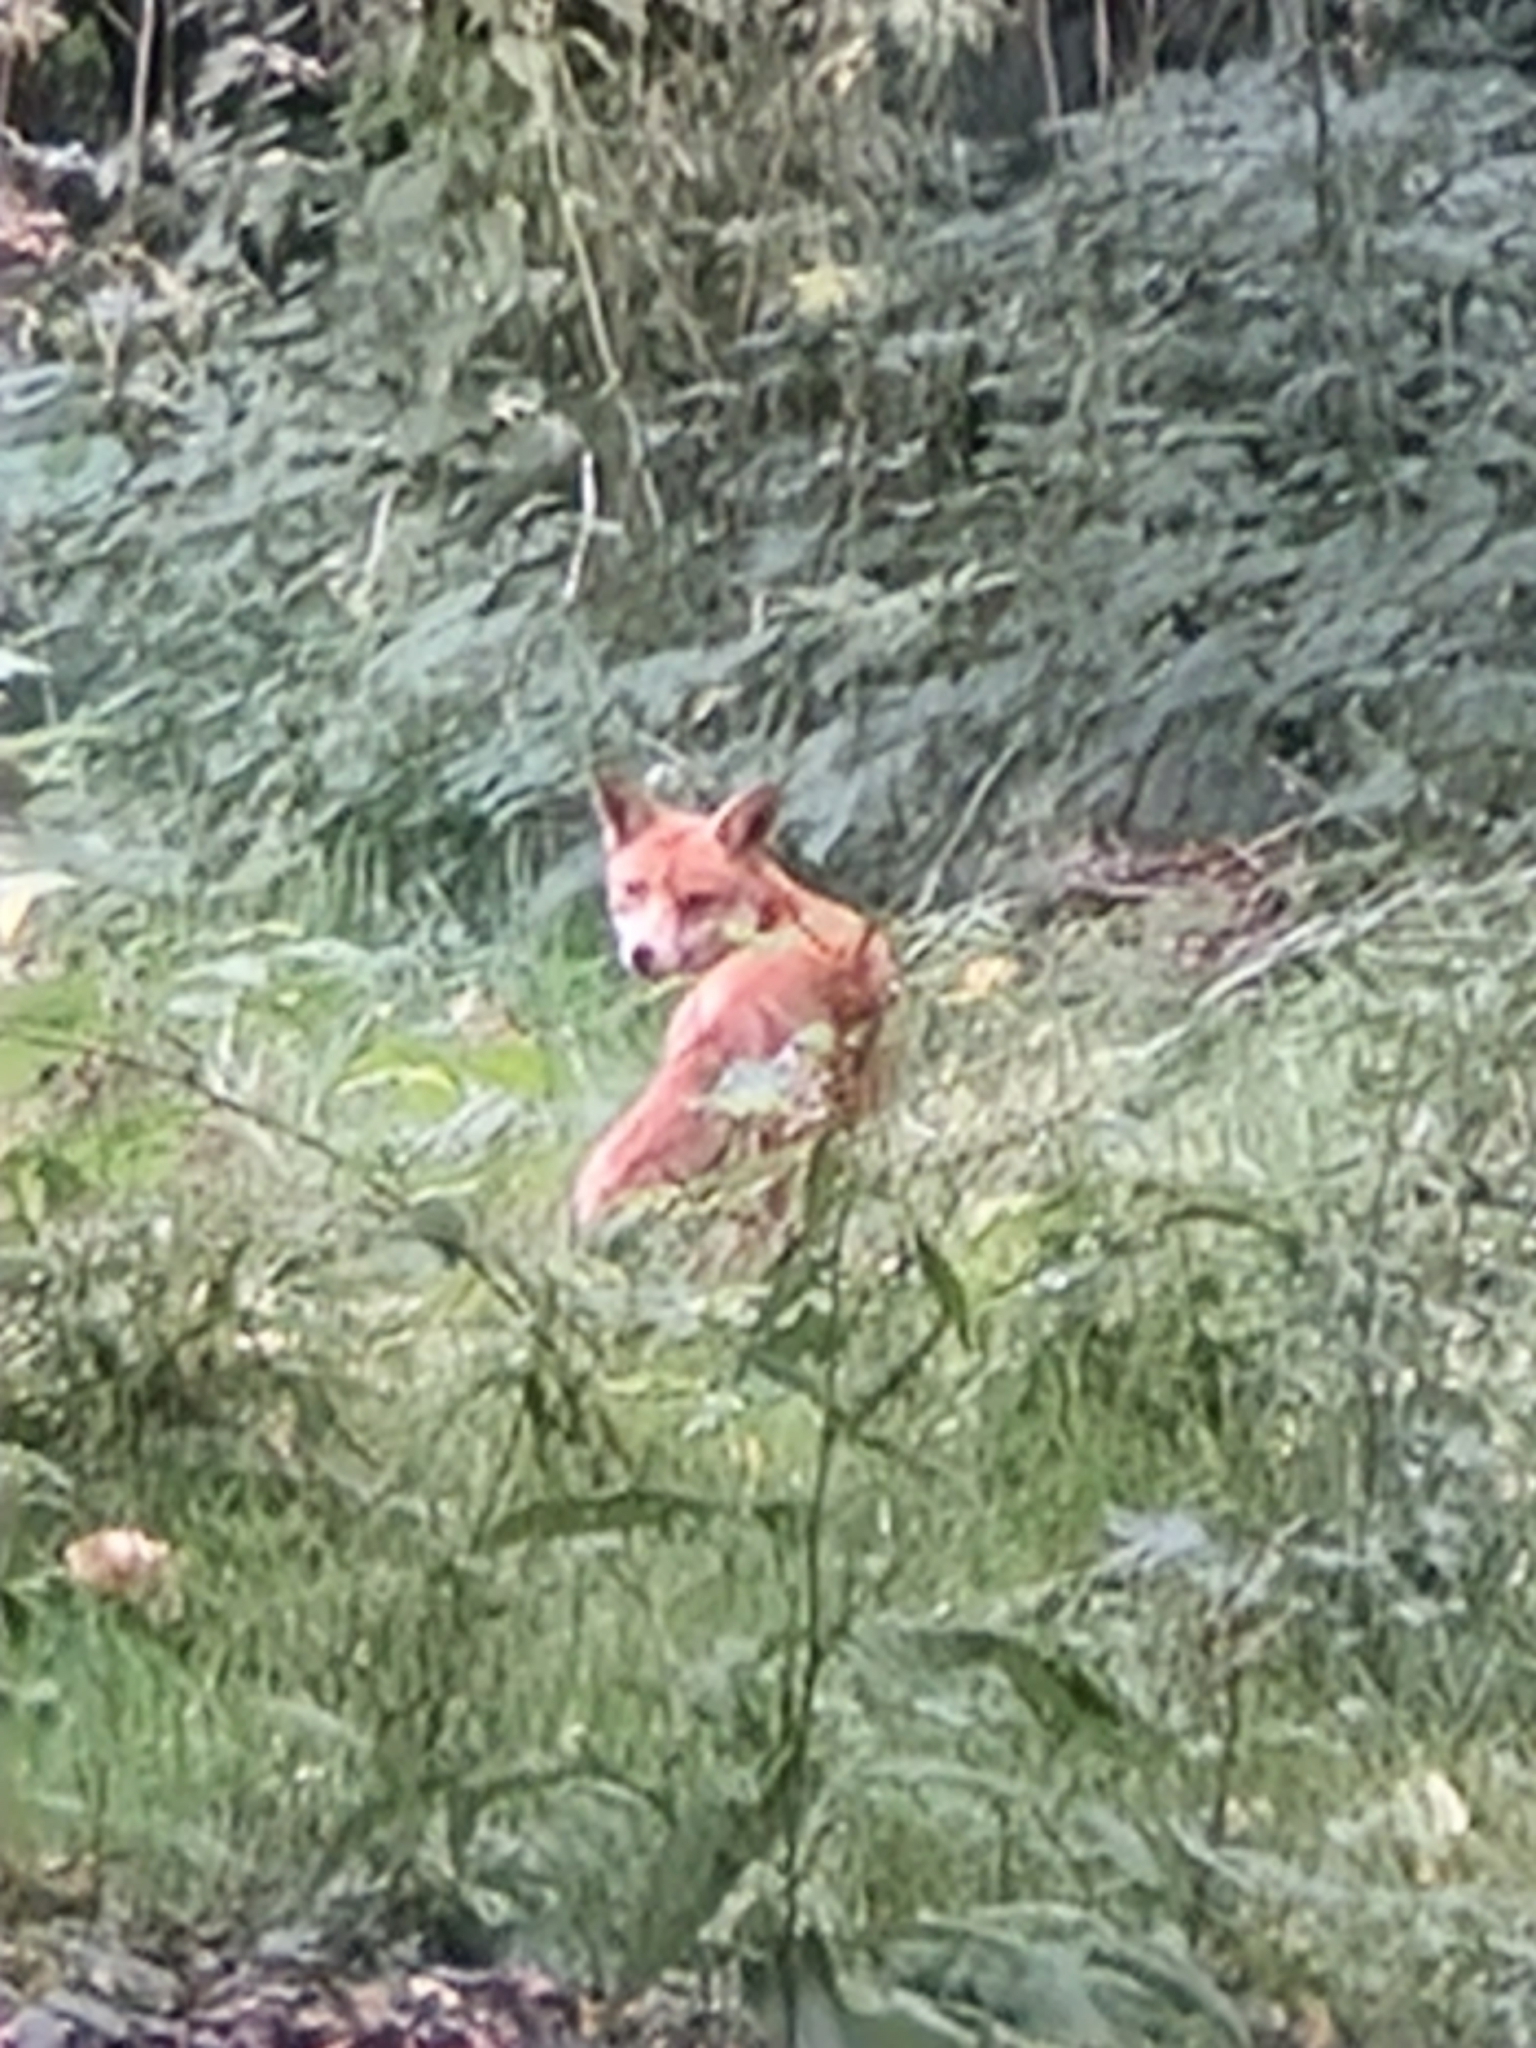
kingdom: Animalia
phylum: Chordata
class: Mammalia
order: Carnivora
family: Canidae
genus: Vulpes
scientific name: Vulpes vulpes
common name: Red fox
